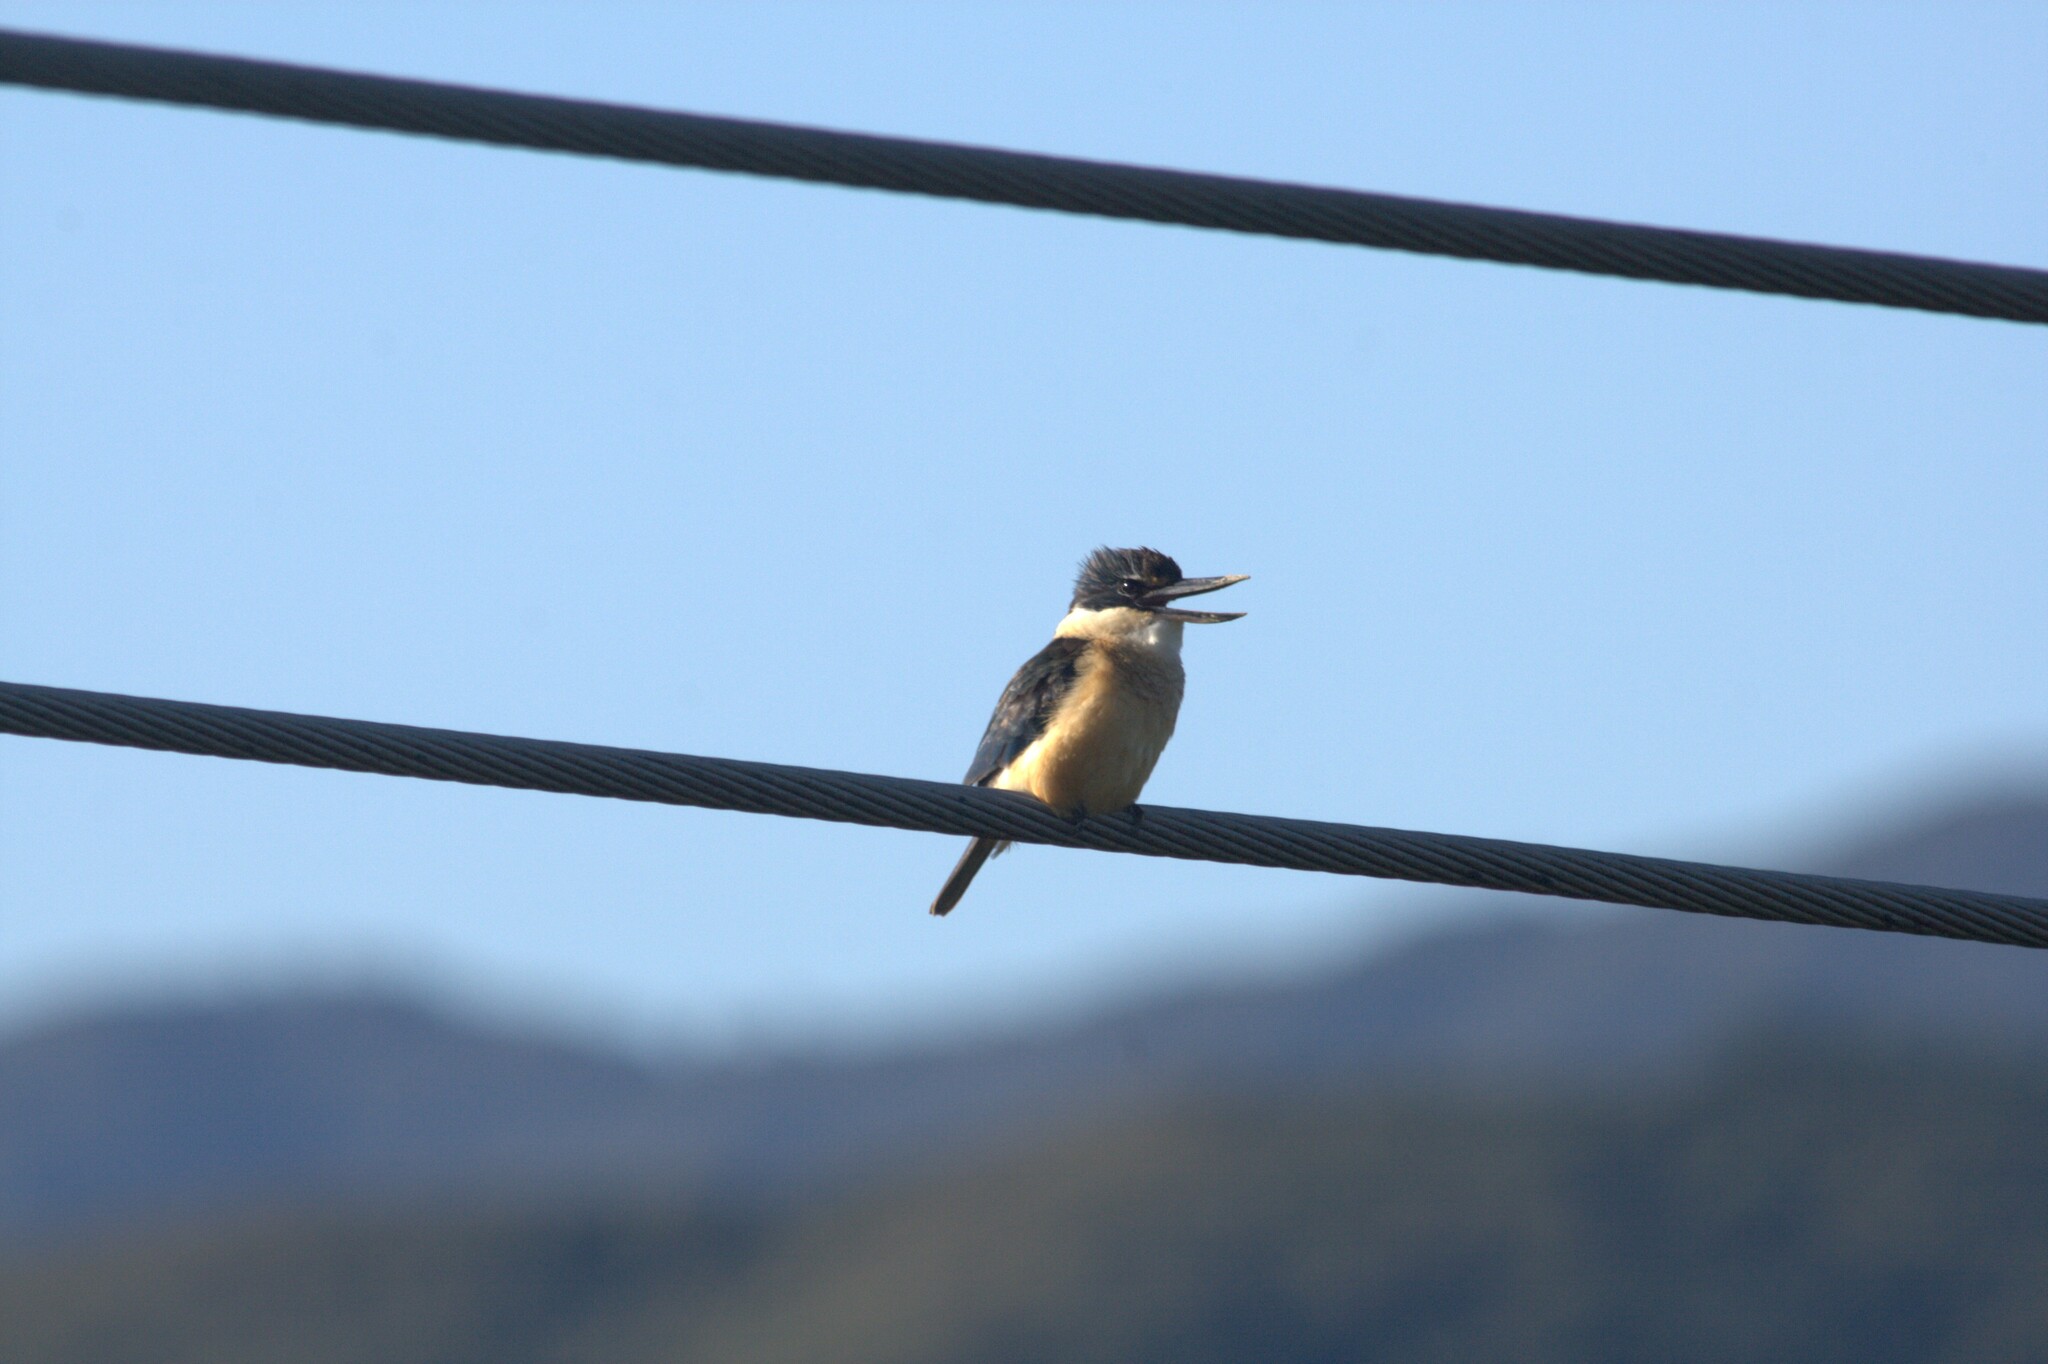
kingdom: Animalia
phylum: Chordata
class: Aves
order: Coraciiformes
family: Alcedinidae
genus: Todiramphus
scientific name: Todiramphus sanctus
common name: Sacred kingfisher
